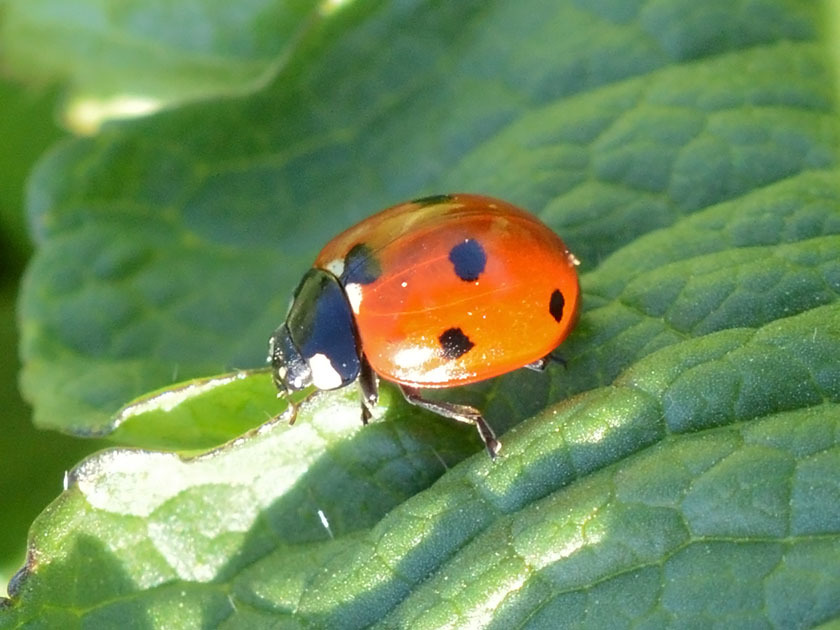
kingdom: Animalia
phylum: Arthropoda
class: Insecta
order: Coleoptera
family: Coccinellidae
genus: Coccinella
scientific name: Coccinella septempunctata
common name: Sevenspotted lady beetle
